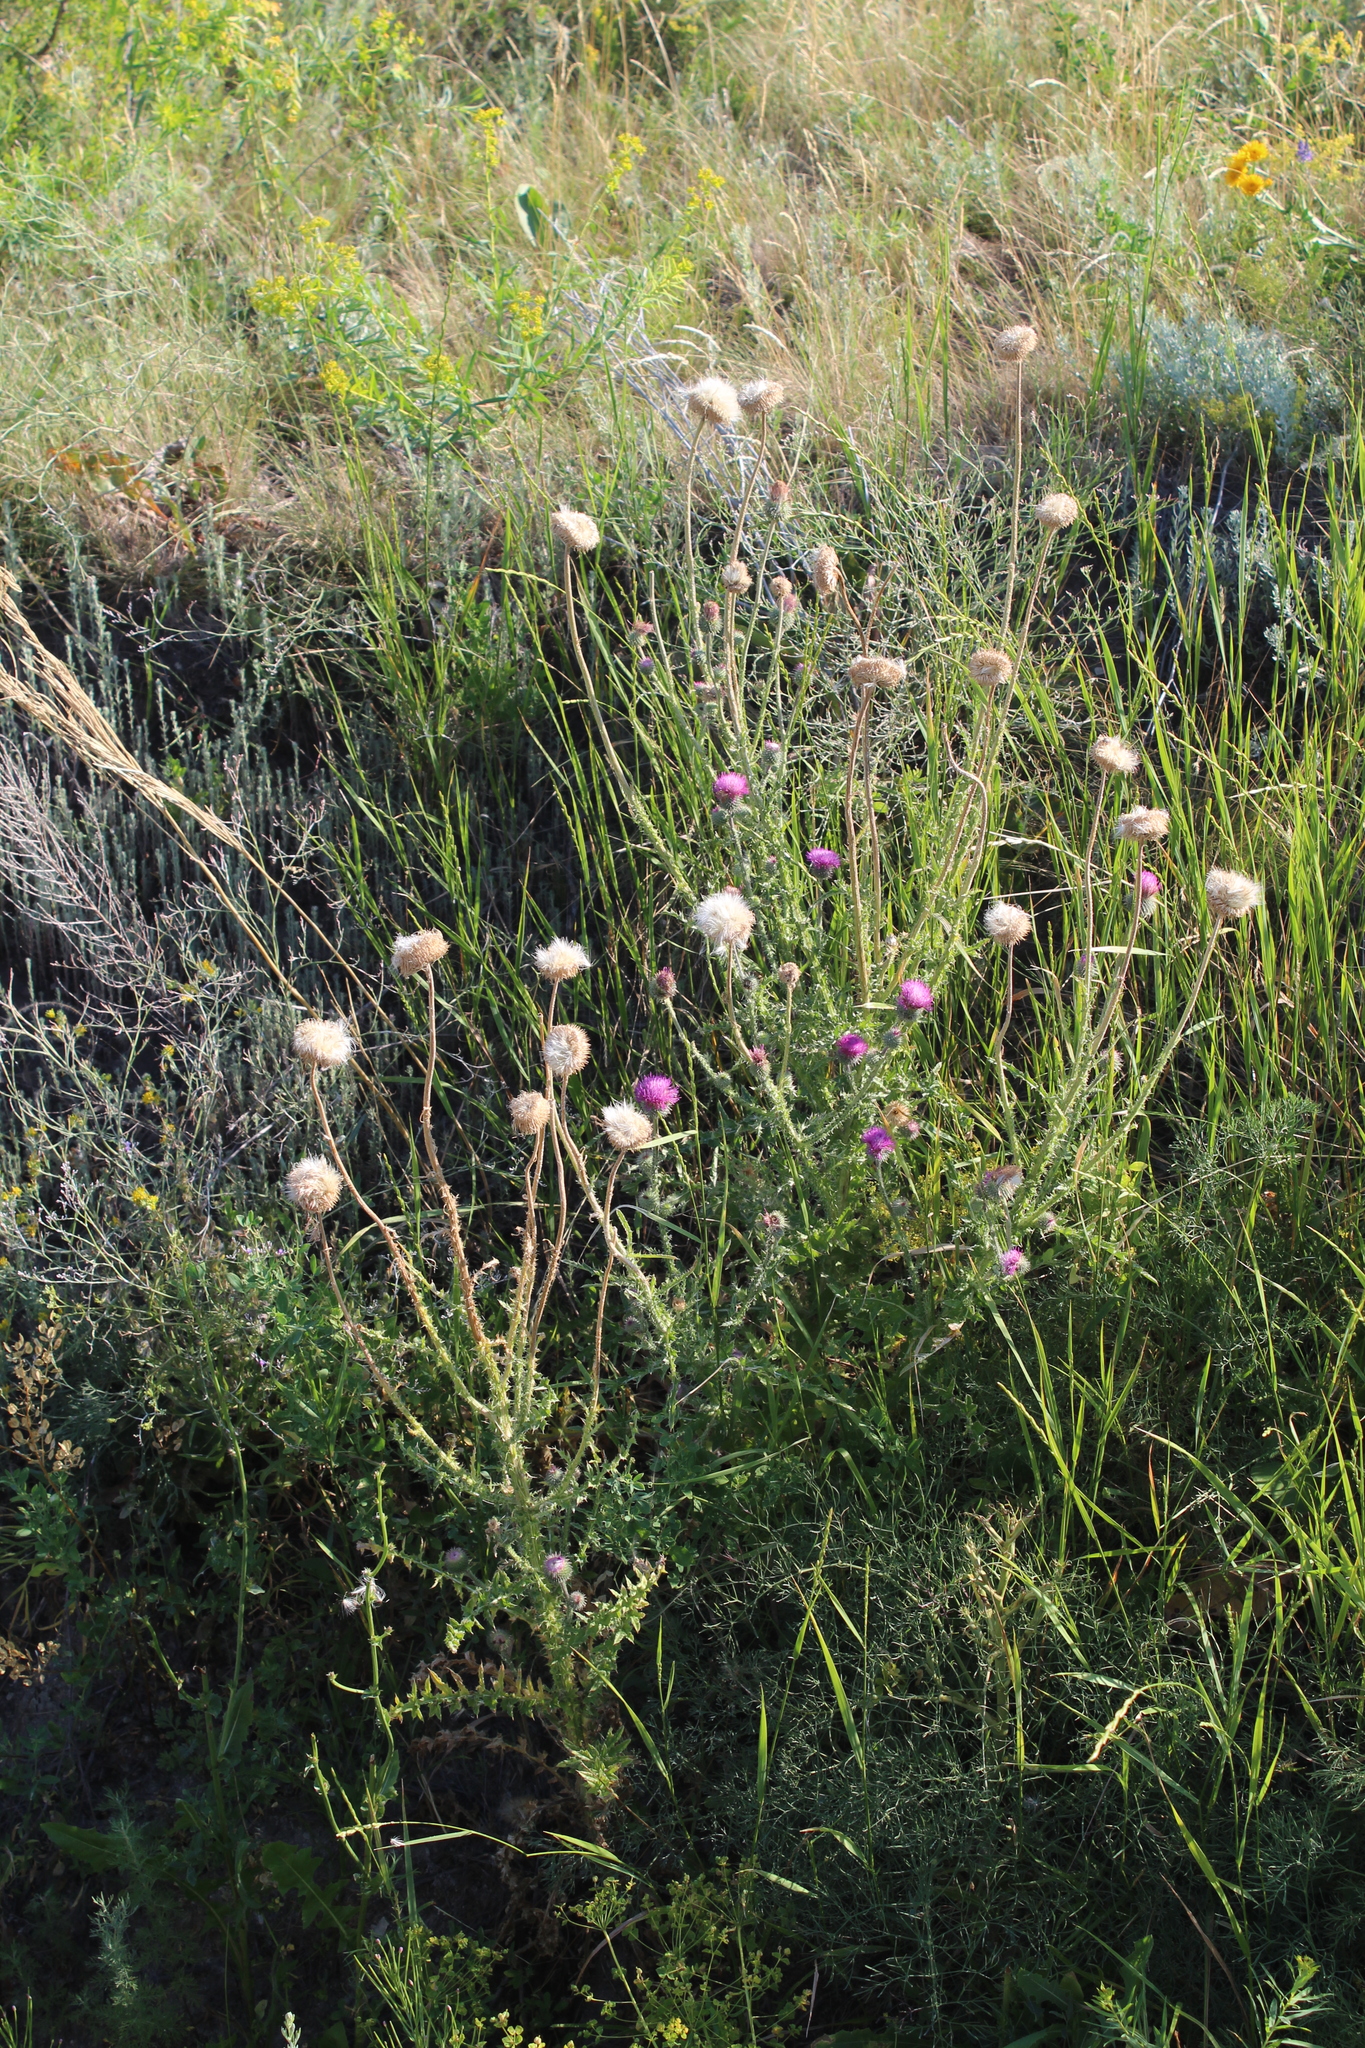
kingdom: Plantae
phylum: Tracheophyta
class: Magnoliopsida
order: Asterales
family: Asteraceae
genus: Carduus
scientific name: Carduus uncinatus
